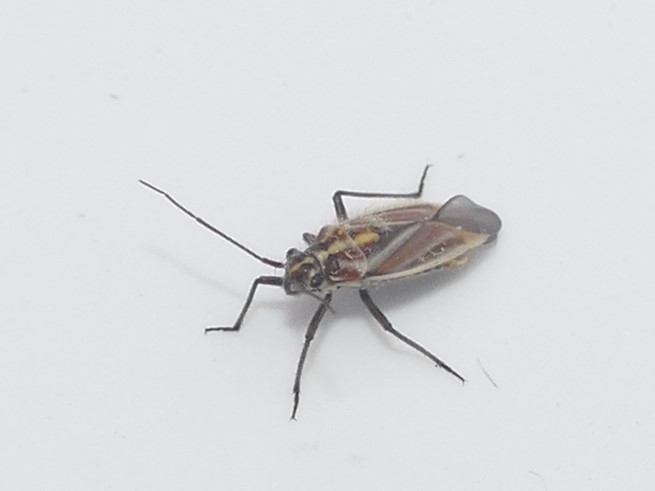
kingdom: Animalia
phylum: Arthropoda
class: Insecta
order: Hemiptera
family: Miridae
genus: Horistus
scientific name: Horistus orientalis
